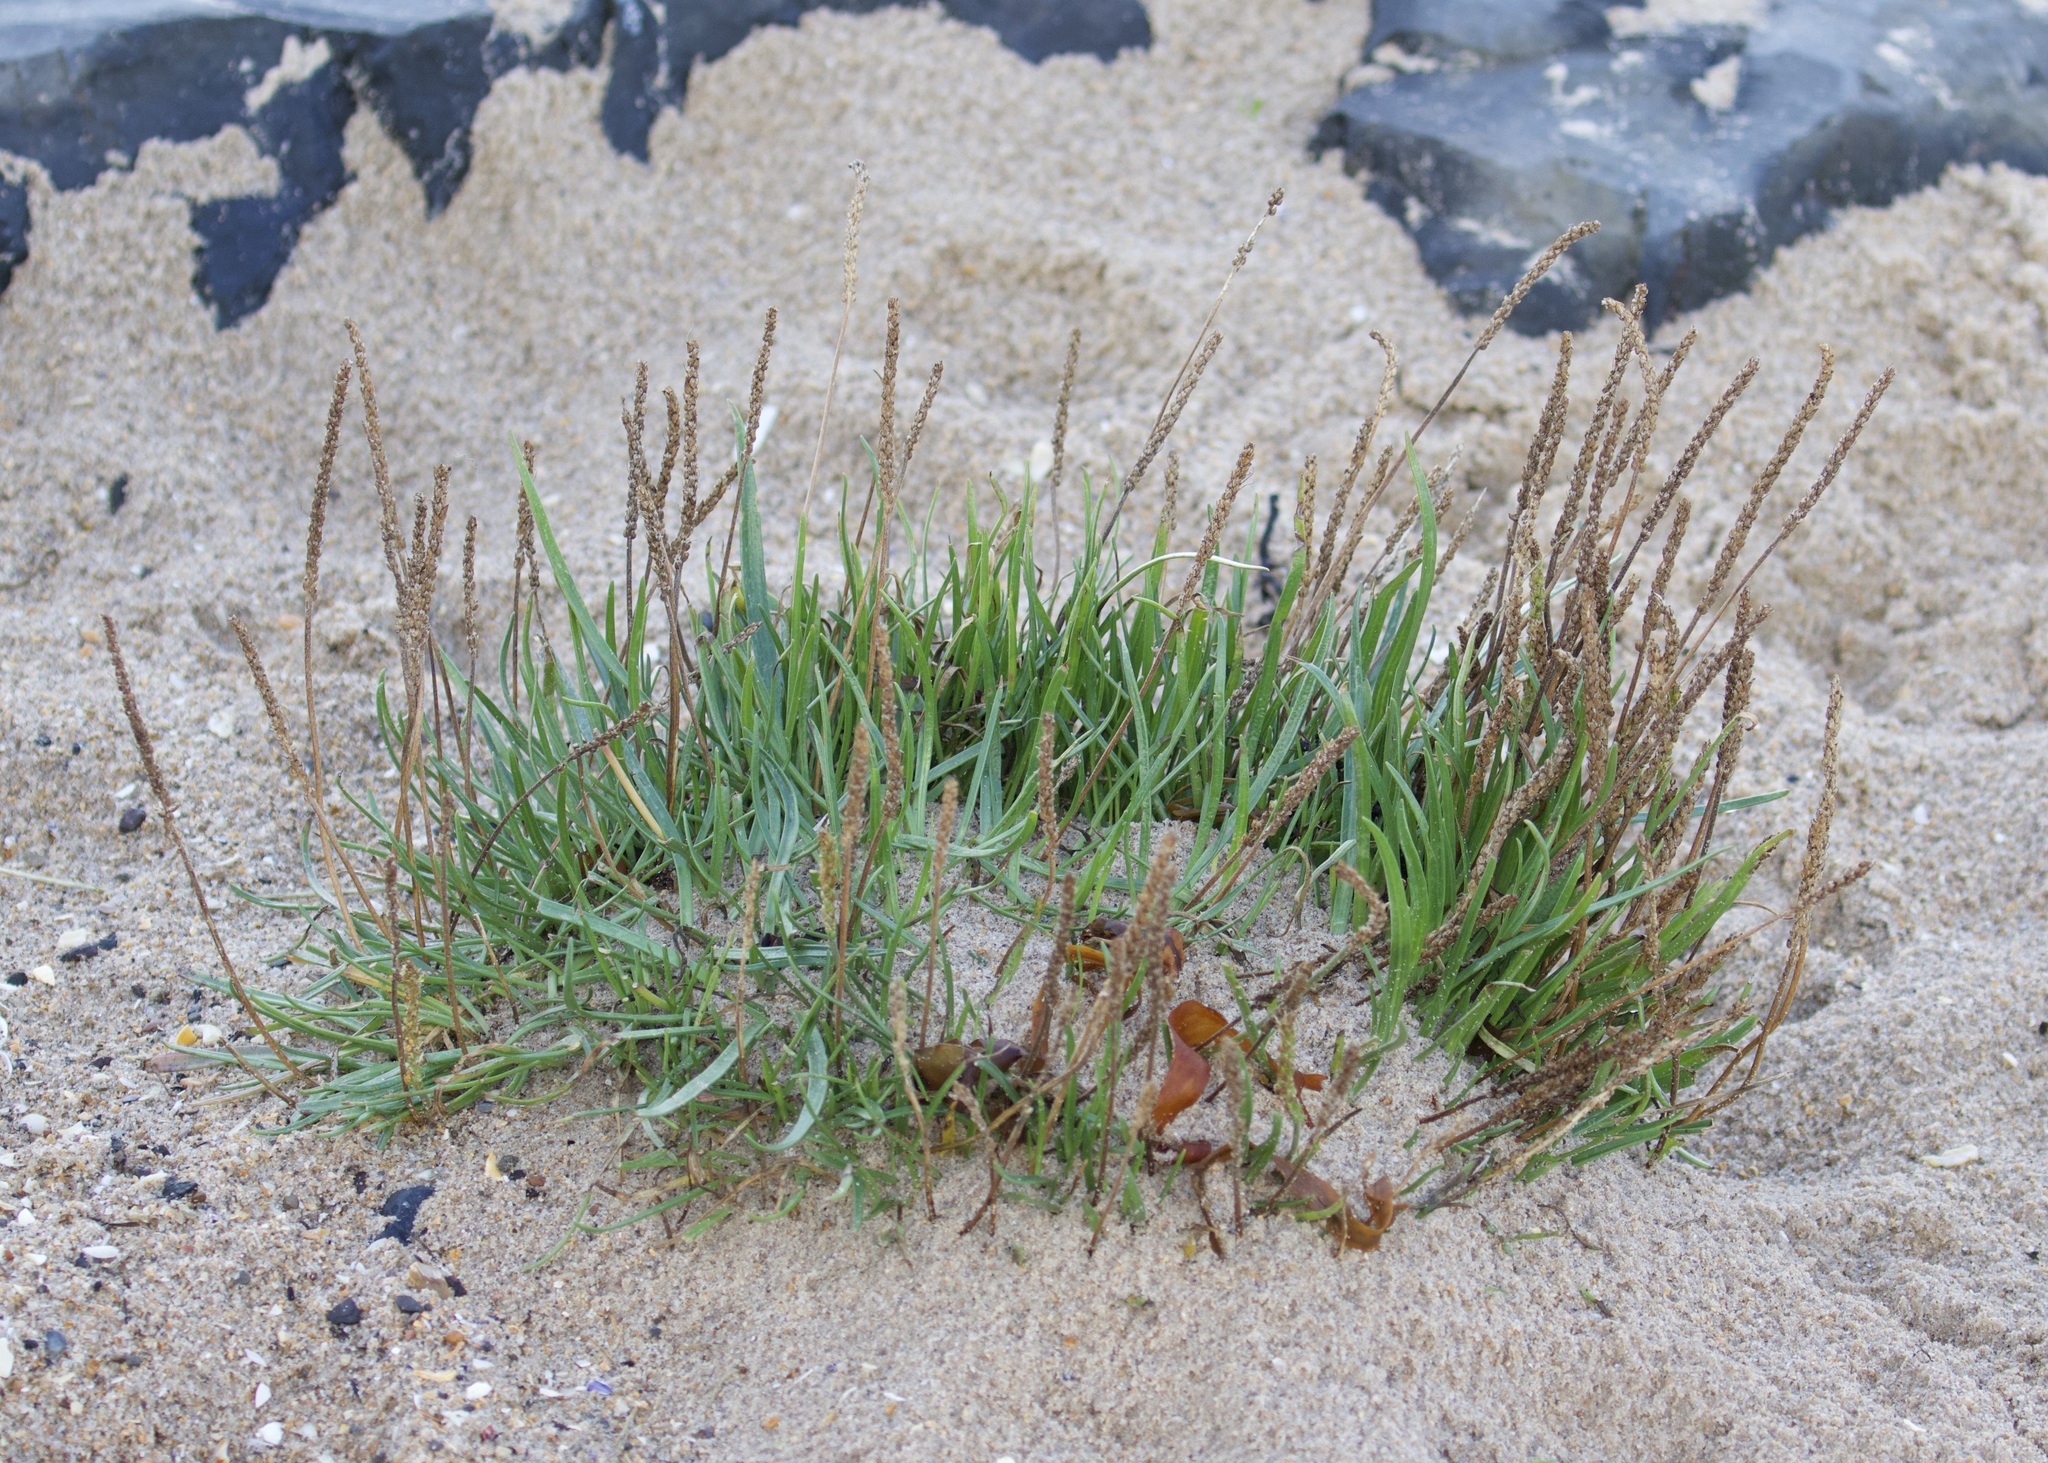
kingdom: Plantae
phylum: Tracheophyta
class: Magnoliopsida
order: Lamiales
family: Plantaginaceae
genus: Plantago
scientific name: Plantago maritima
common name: Sea plantain
